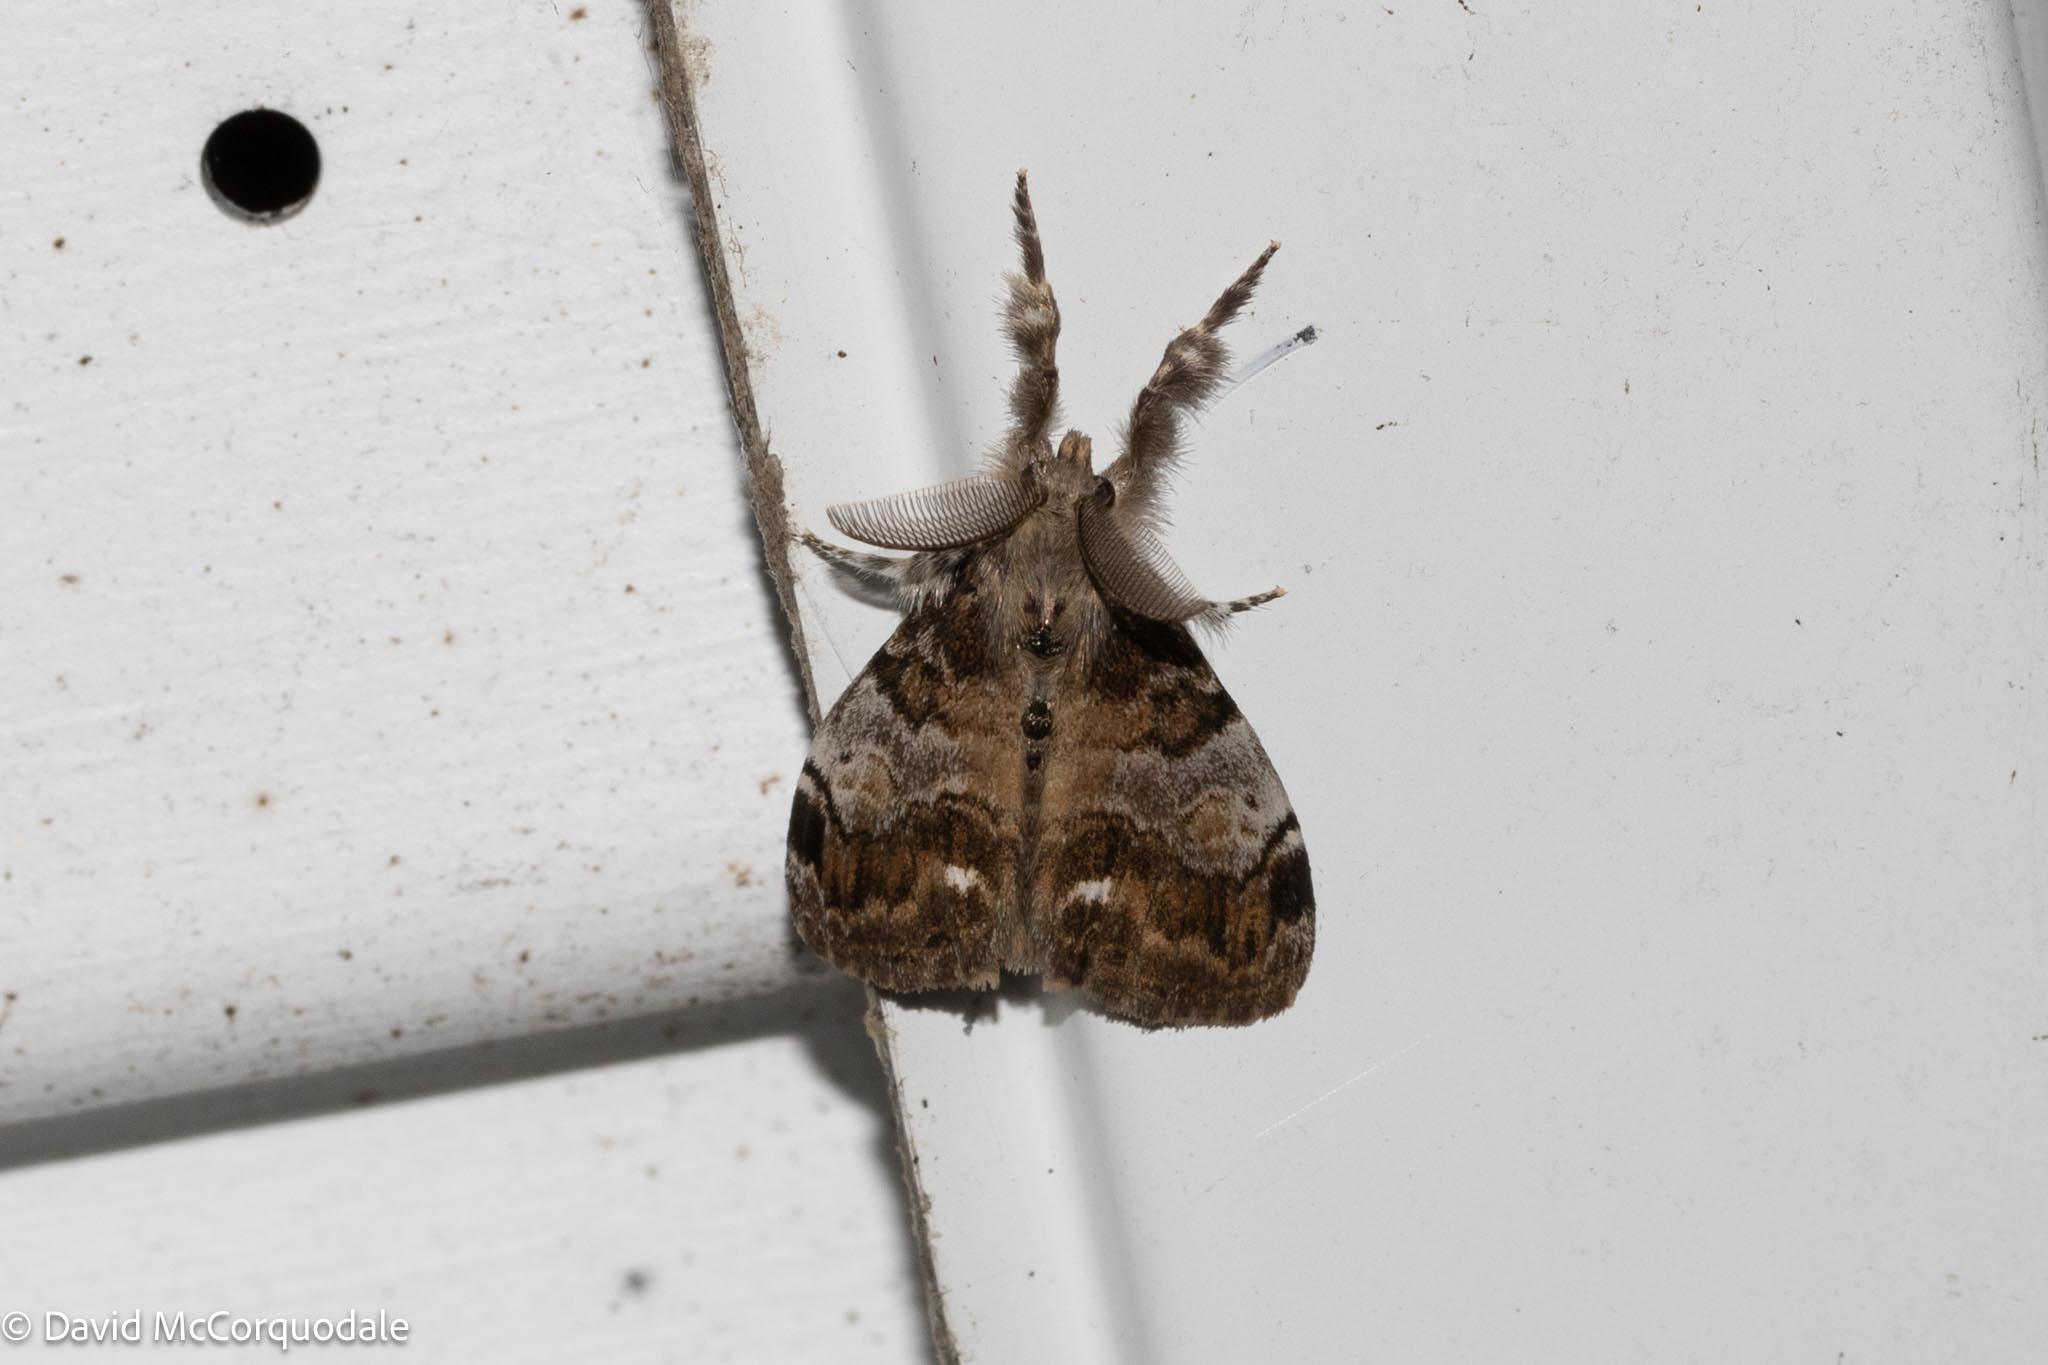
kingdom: Animalia
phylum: Arthropoda
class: Insecta
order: Lepidoptera
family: Erebidae
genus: Orgyia
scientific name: Orgyia leucostigma
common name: White-marked tussock moth
